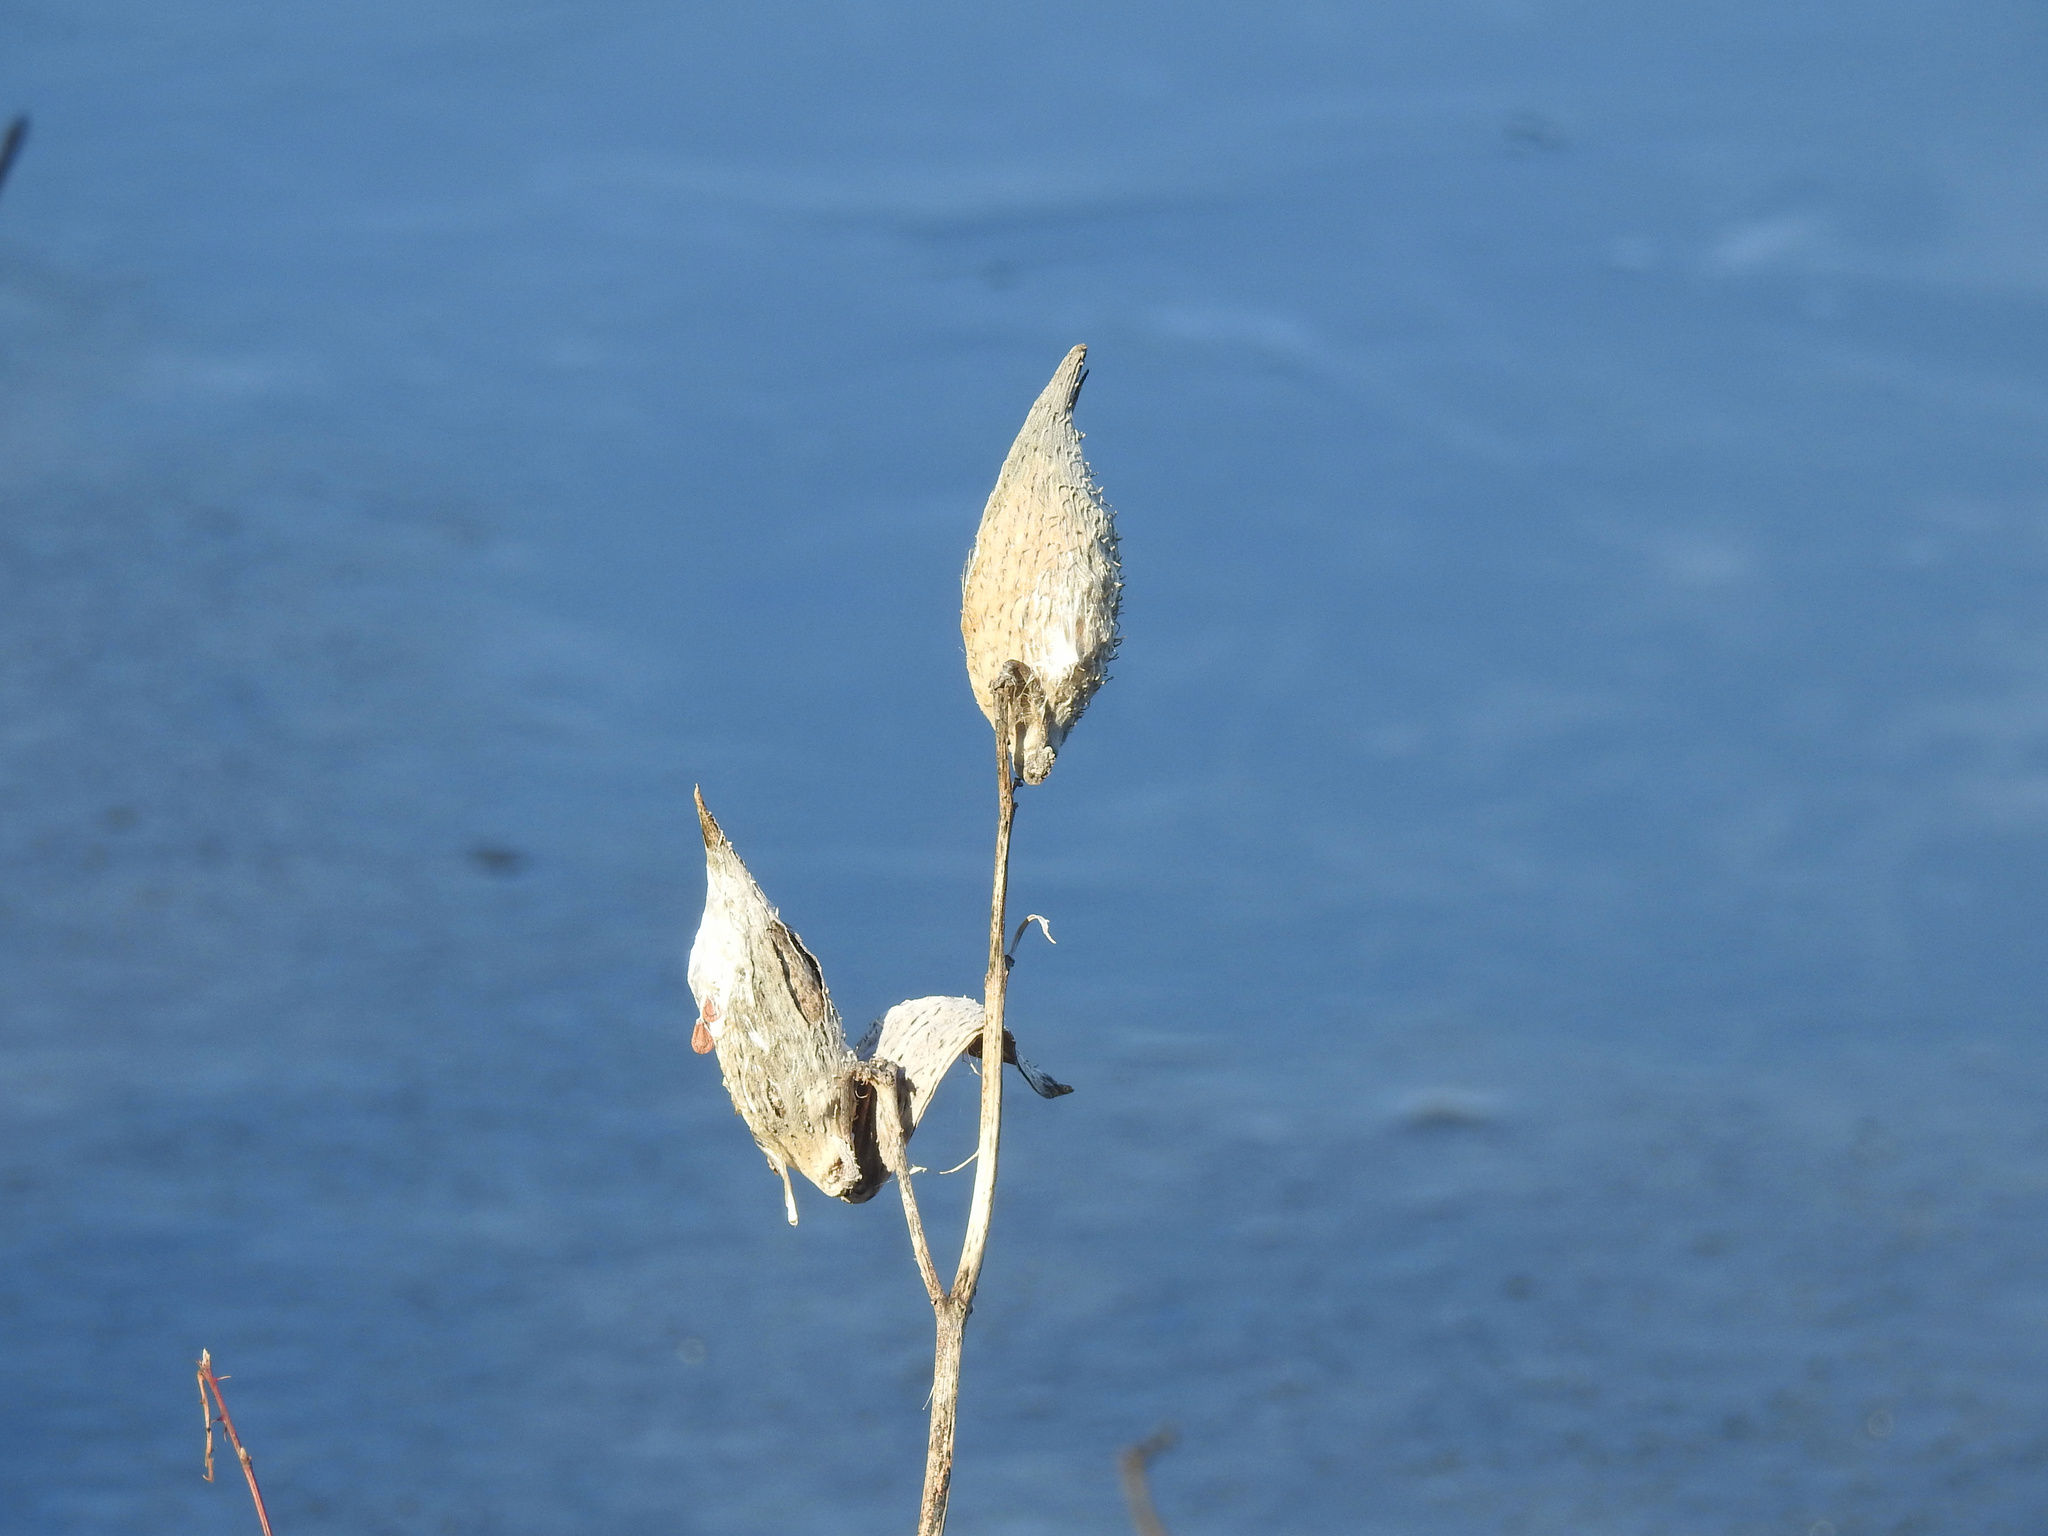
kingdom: Plantae
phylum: Tracheophyta
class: Magnoliopsida
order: Gentianales
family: Apocynaceae
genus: Asclepias
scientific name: Asclepias syriaca
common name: Common milkweed
